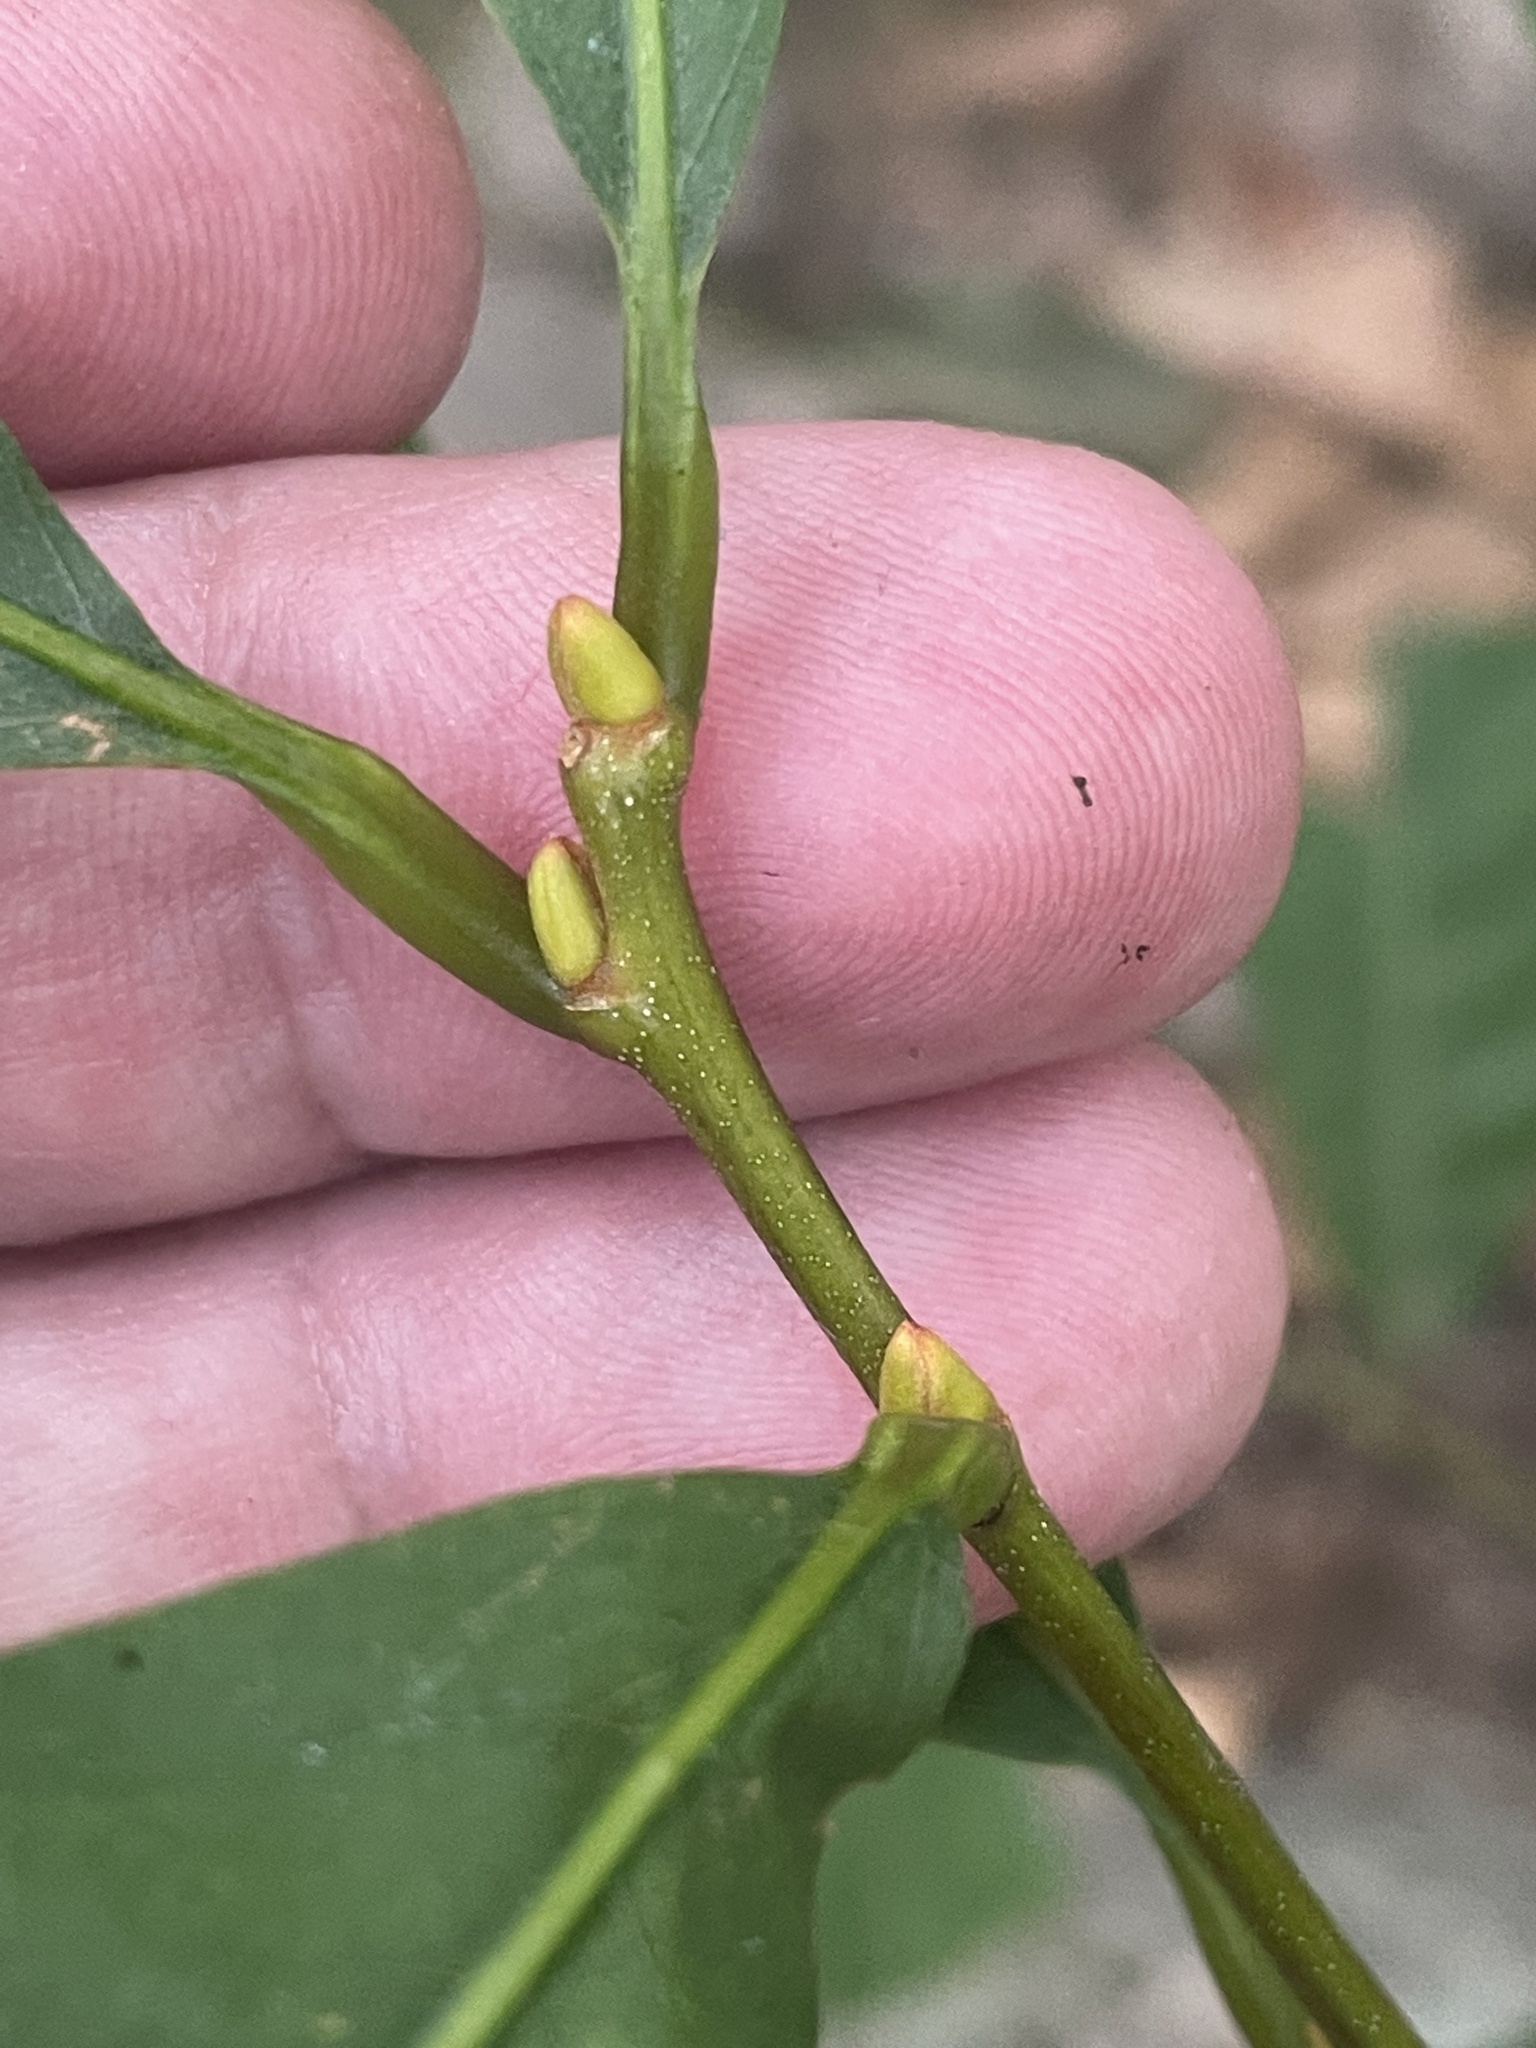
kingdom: Plantae
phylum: Tracheophyta
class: Magnoliopsida
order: Fagales
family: Fagaceae
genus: Castanea
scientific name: Castanea dentata
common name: American chestnut
